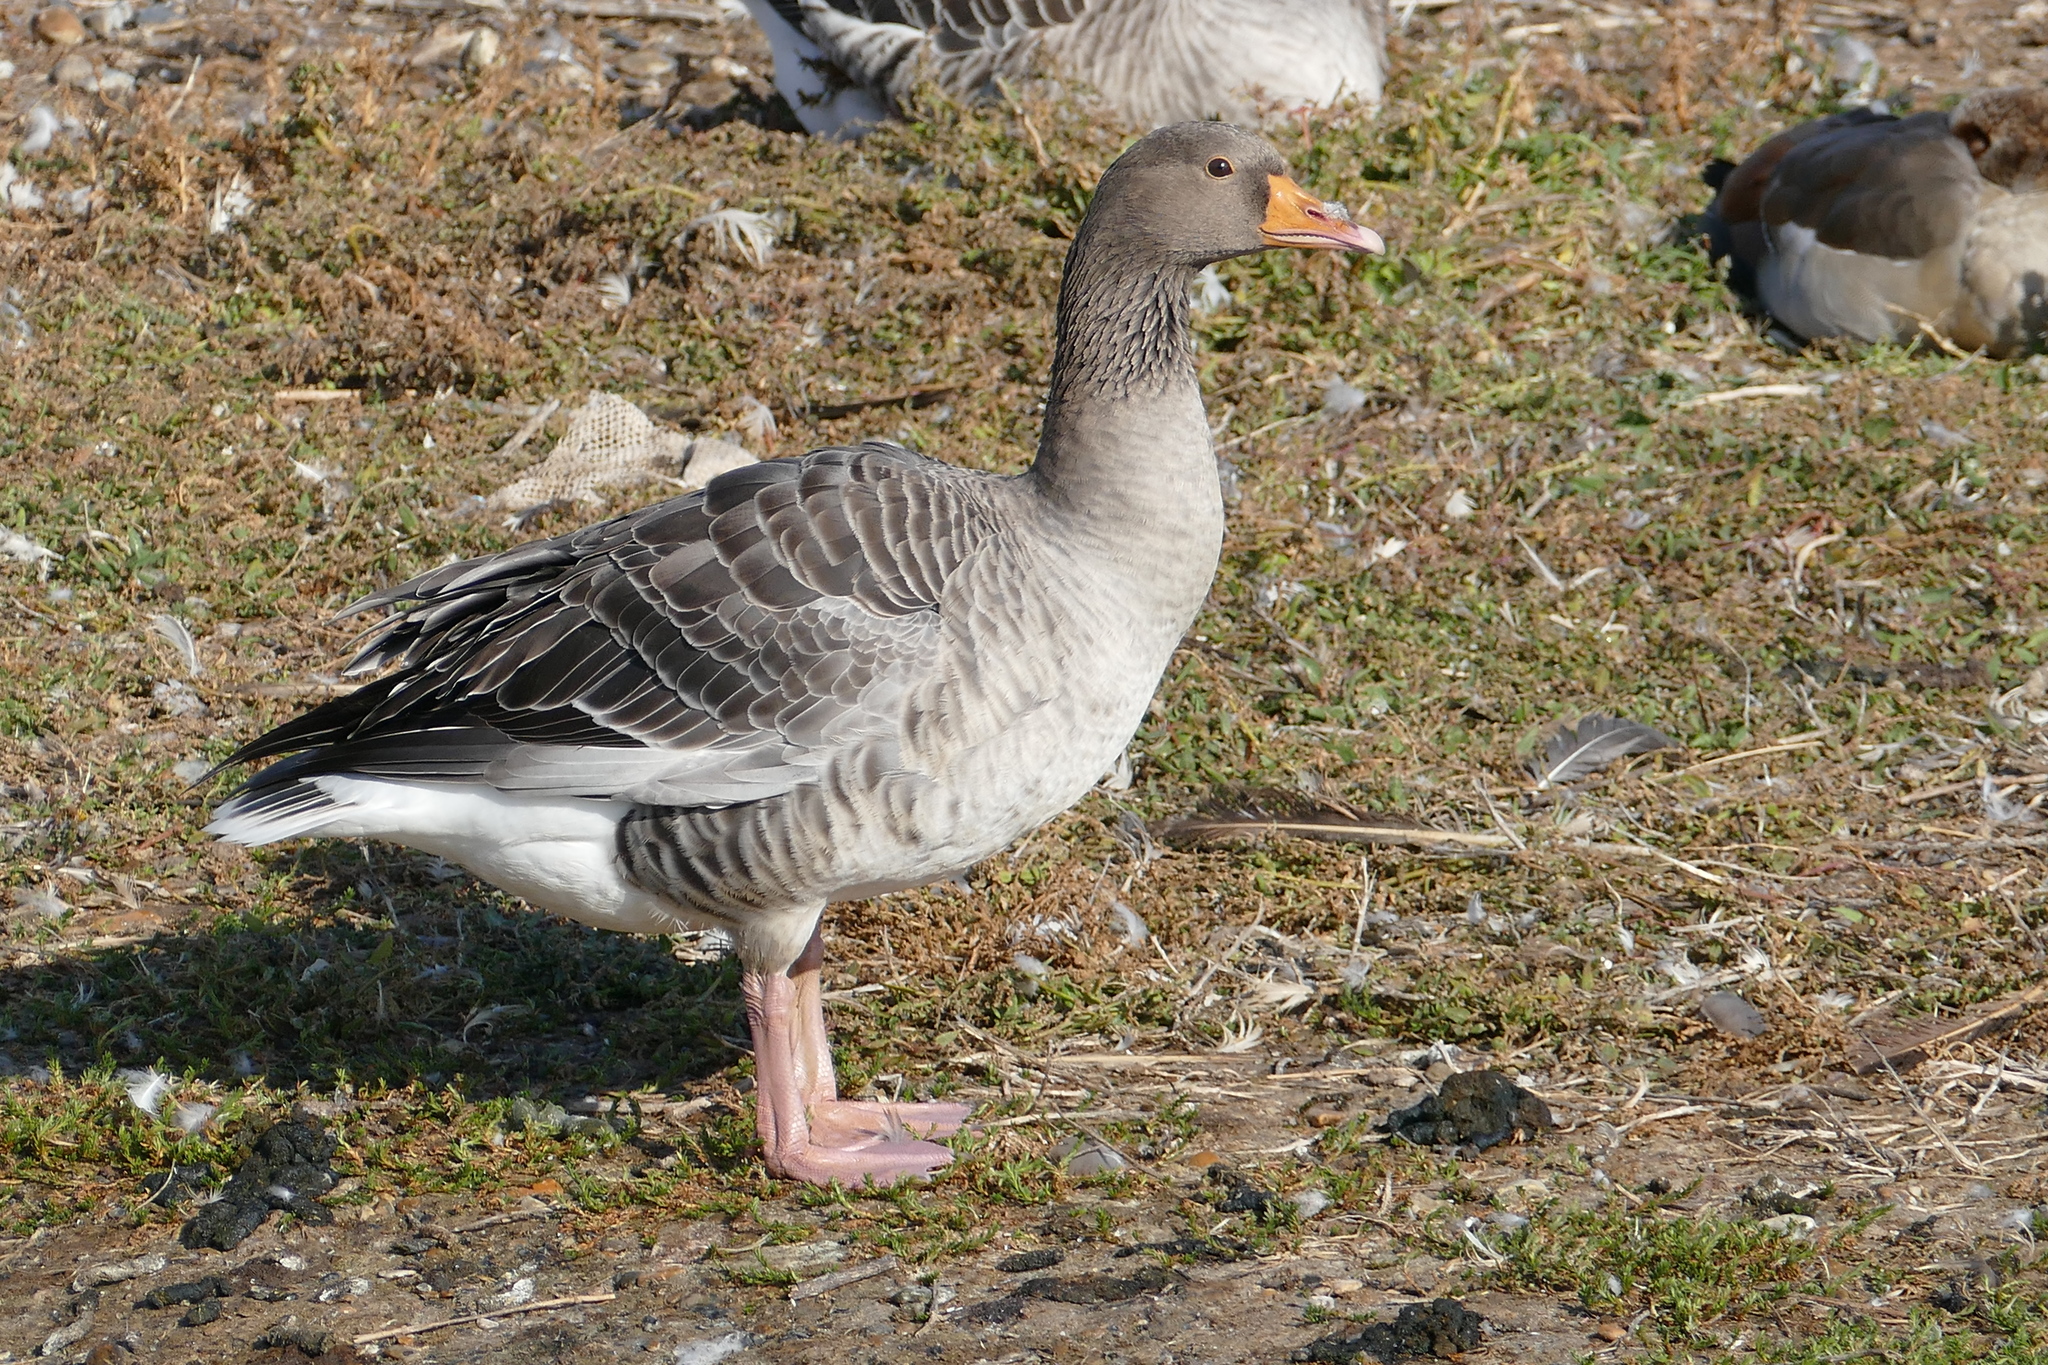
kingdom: Animalia
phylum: Chordata
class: Aves
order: Anseriformes
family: Anatidae
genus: Anser
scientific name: Anser anser
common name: Greylag goose
